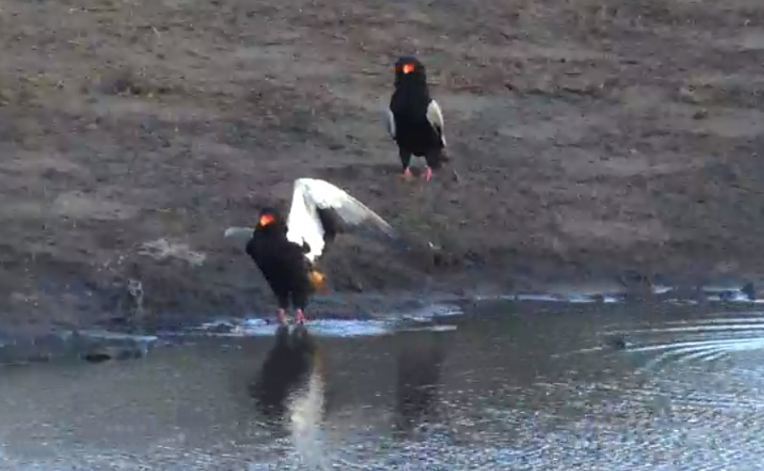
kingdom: Animalia
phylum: Chordata
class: Aves
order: Accipitriformes
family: Accipitridae
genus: Terathopius
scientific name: Terathopius ecaudatus
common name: Bateleur
